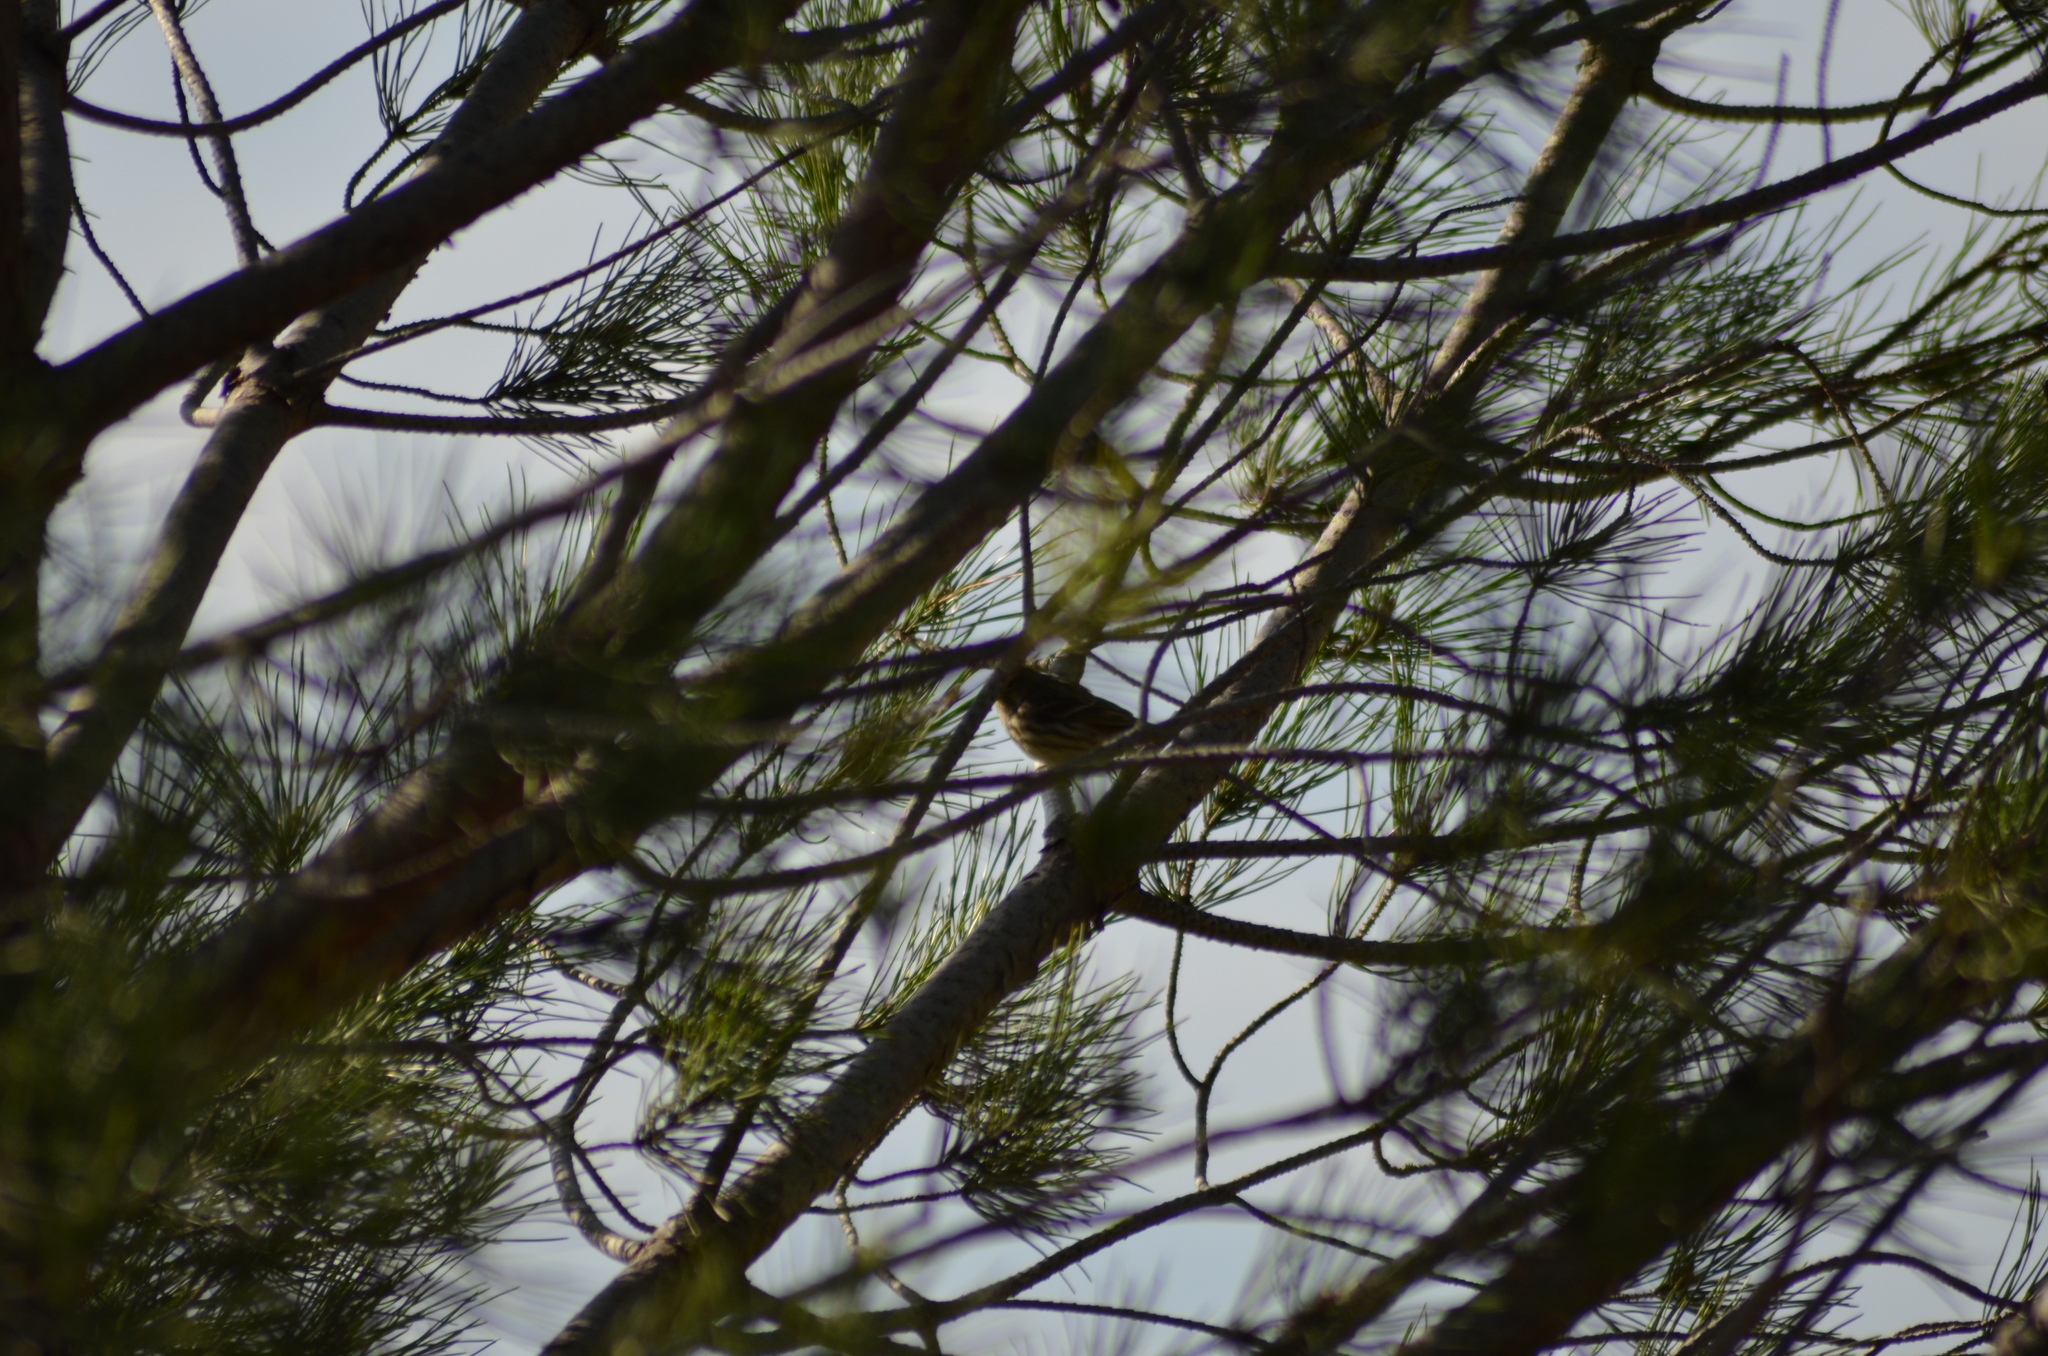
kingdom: Animalia
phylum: Chordata
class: Aves
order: Passeriformes
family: Fringillidae
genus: Serinus
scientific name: Serinus serinus
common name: European serin
